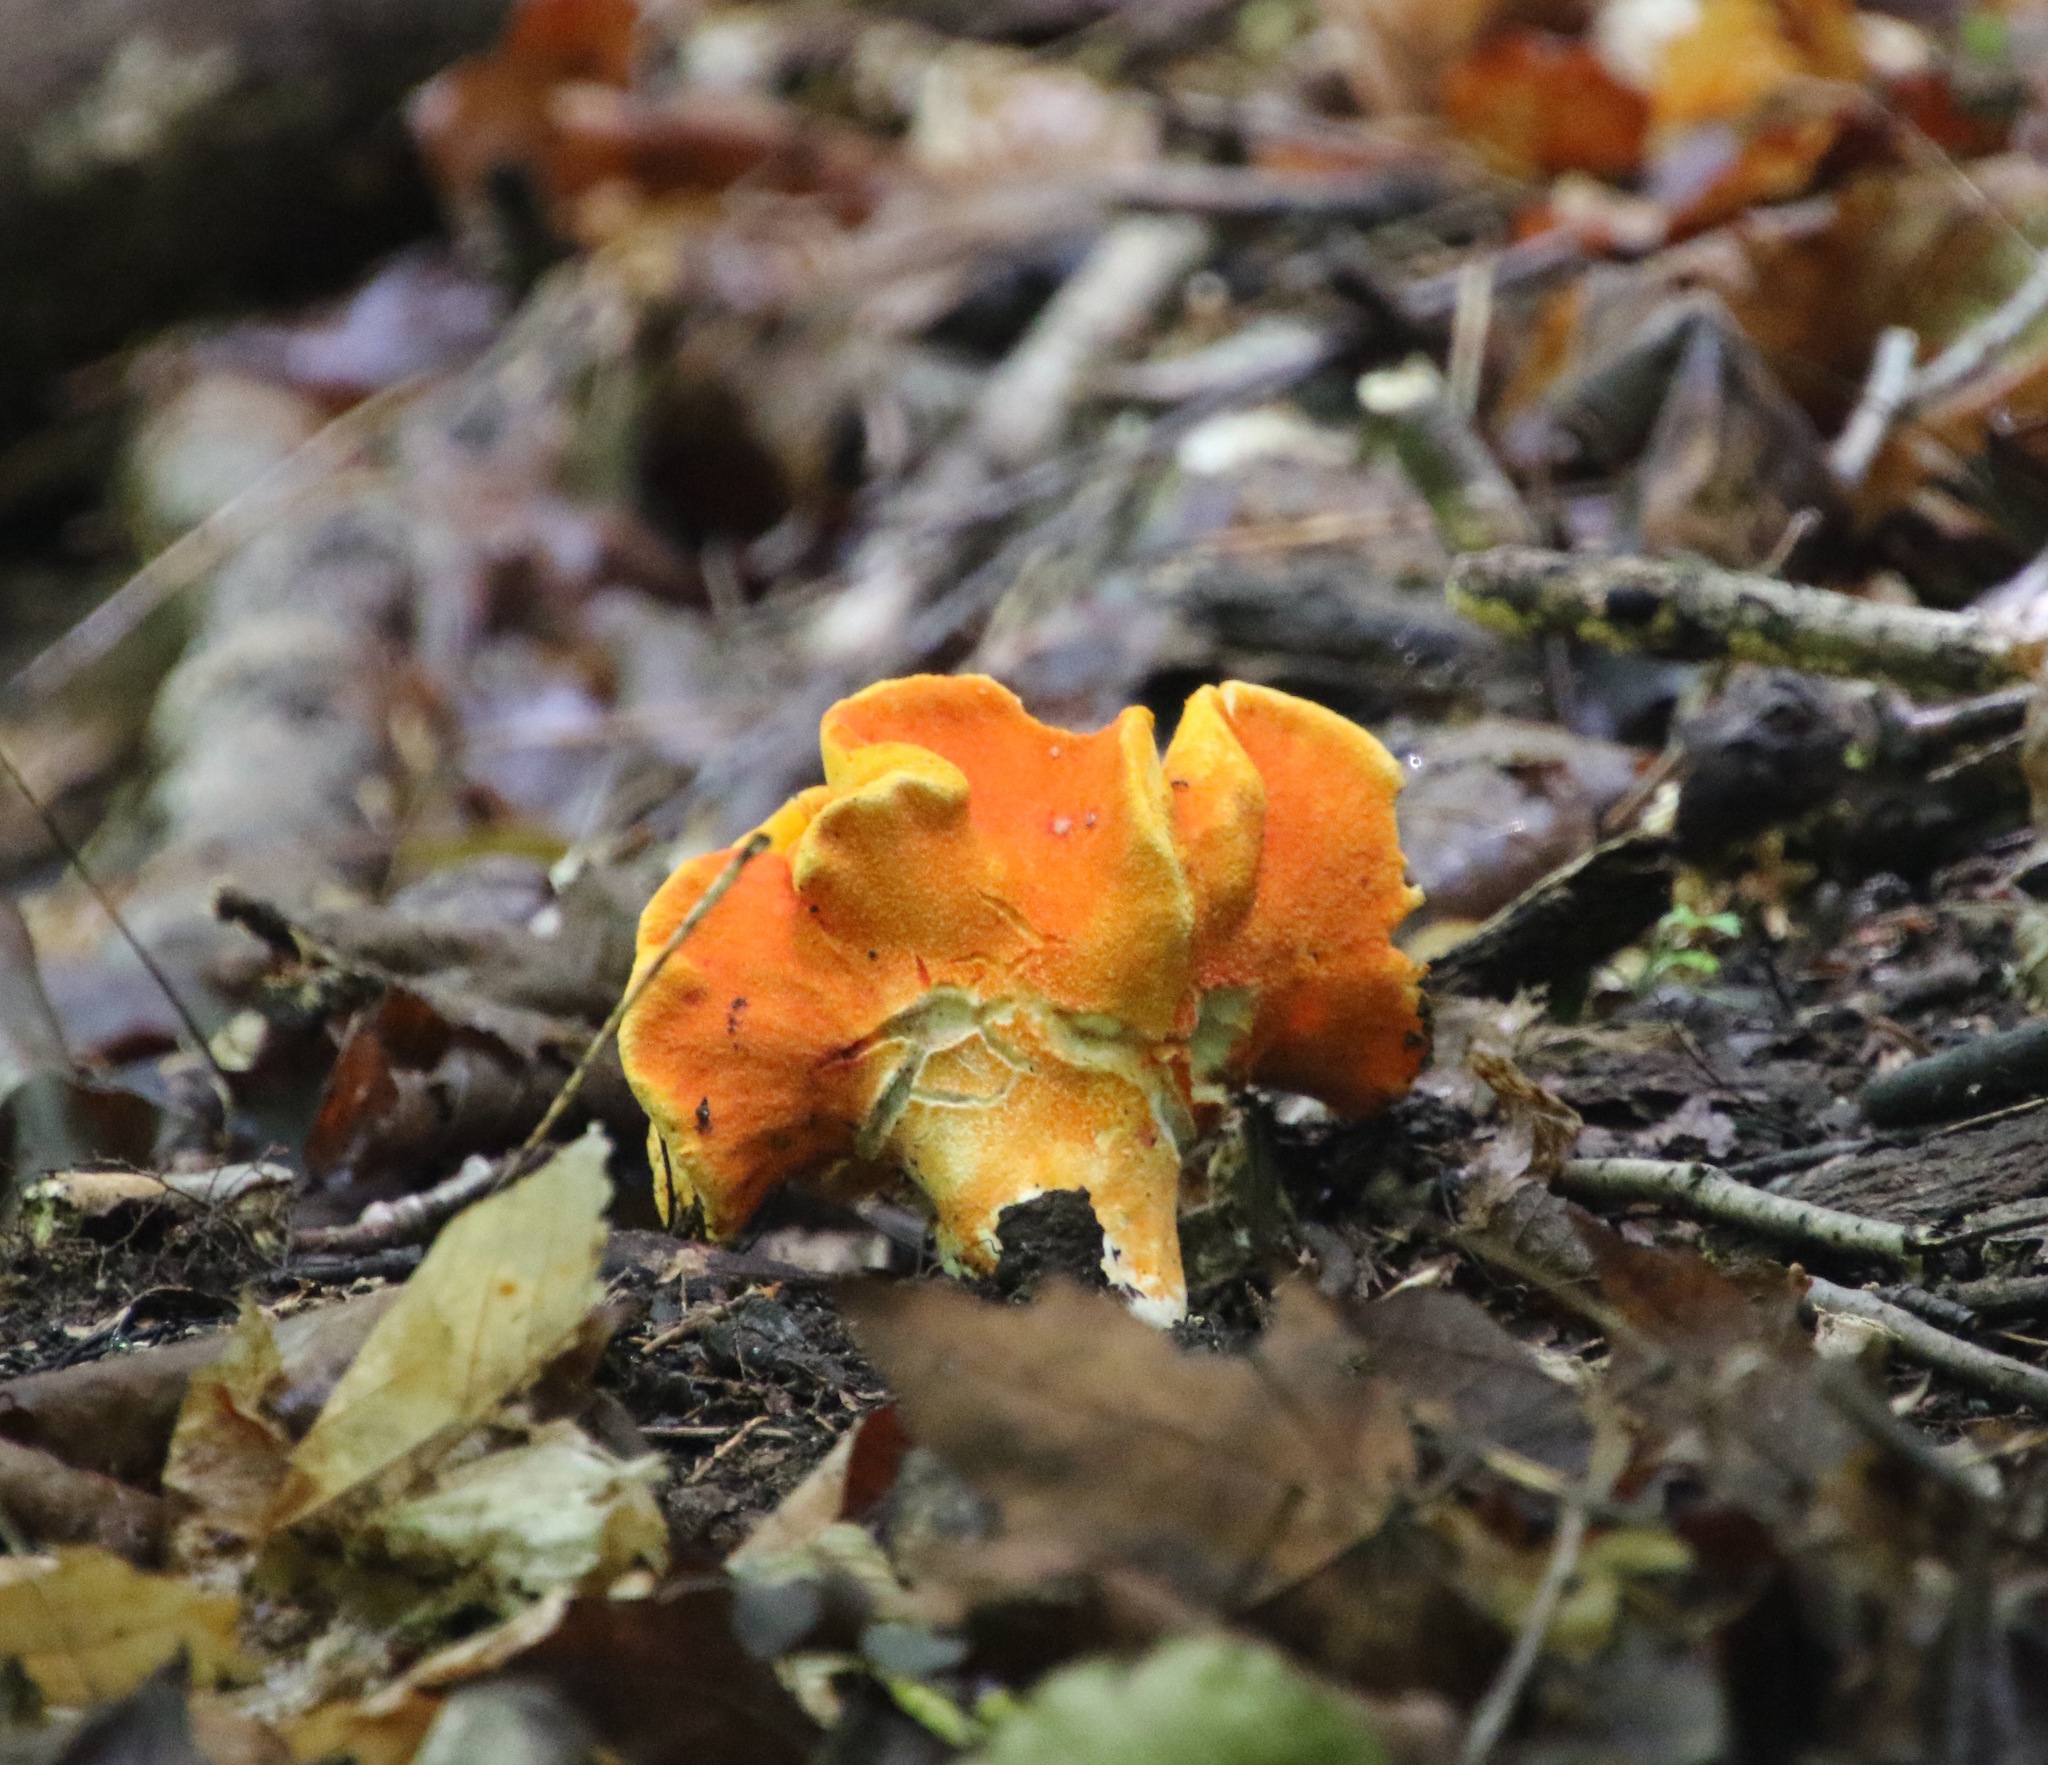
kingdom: Fungi
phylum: Ascomycota
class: Sordariomycetes
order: Hypocreales
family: Hypocreaceae
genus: Hypomyces
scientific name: Hypomyces lactifluorum
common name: Lobster mushroom
